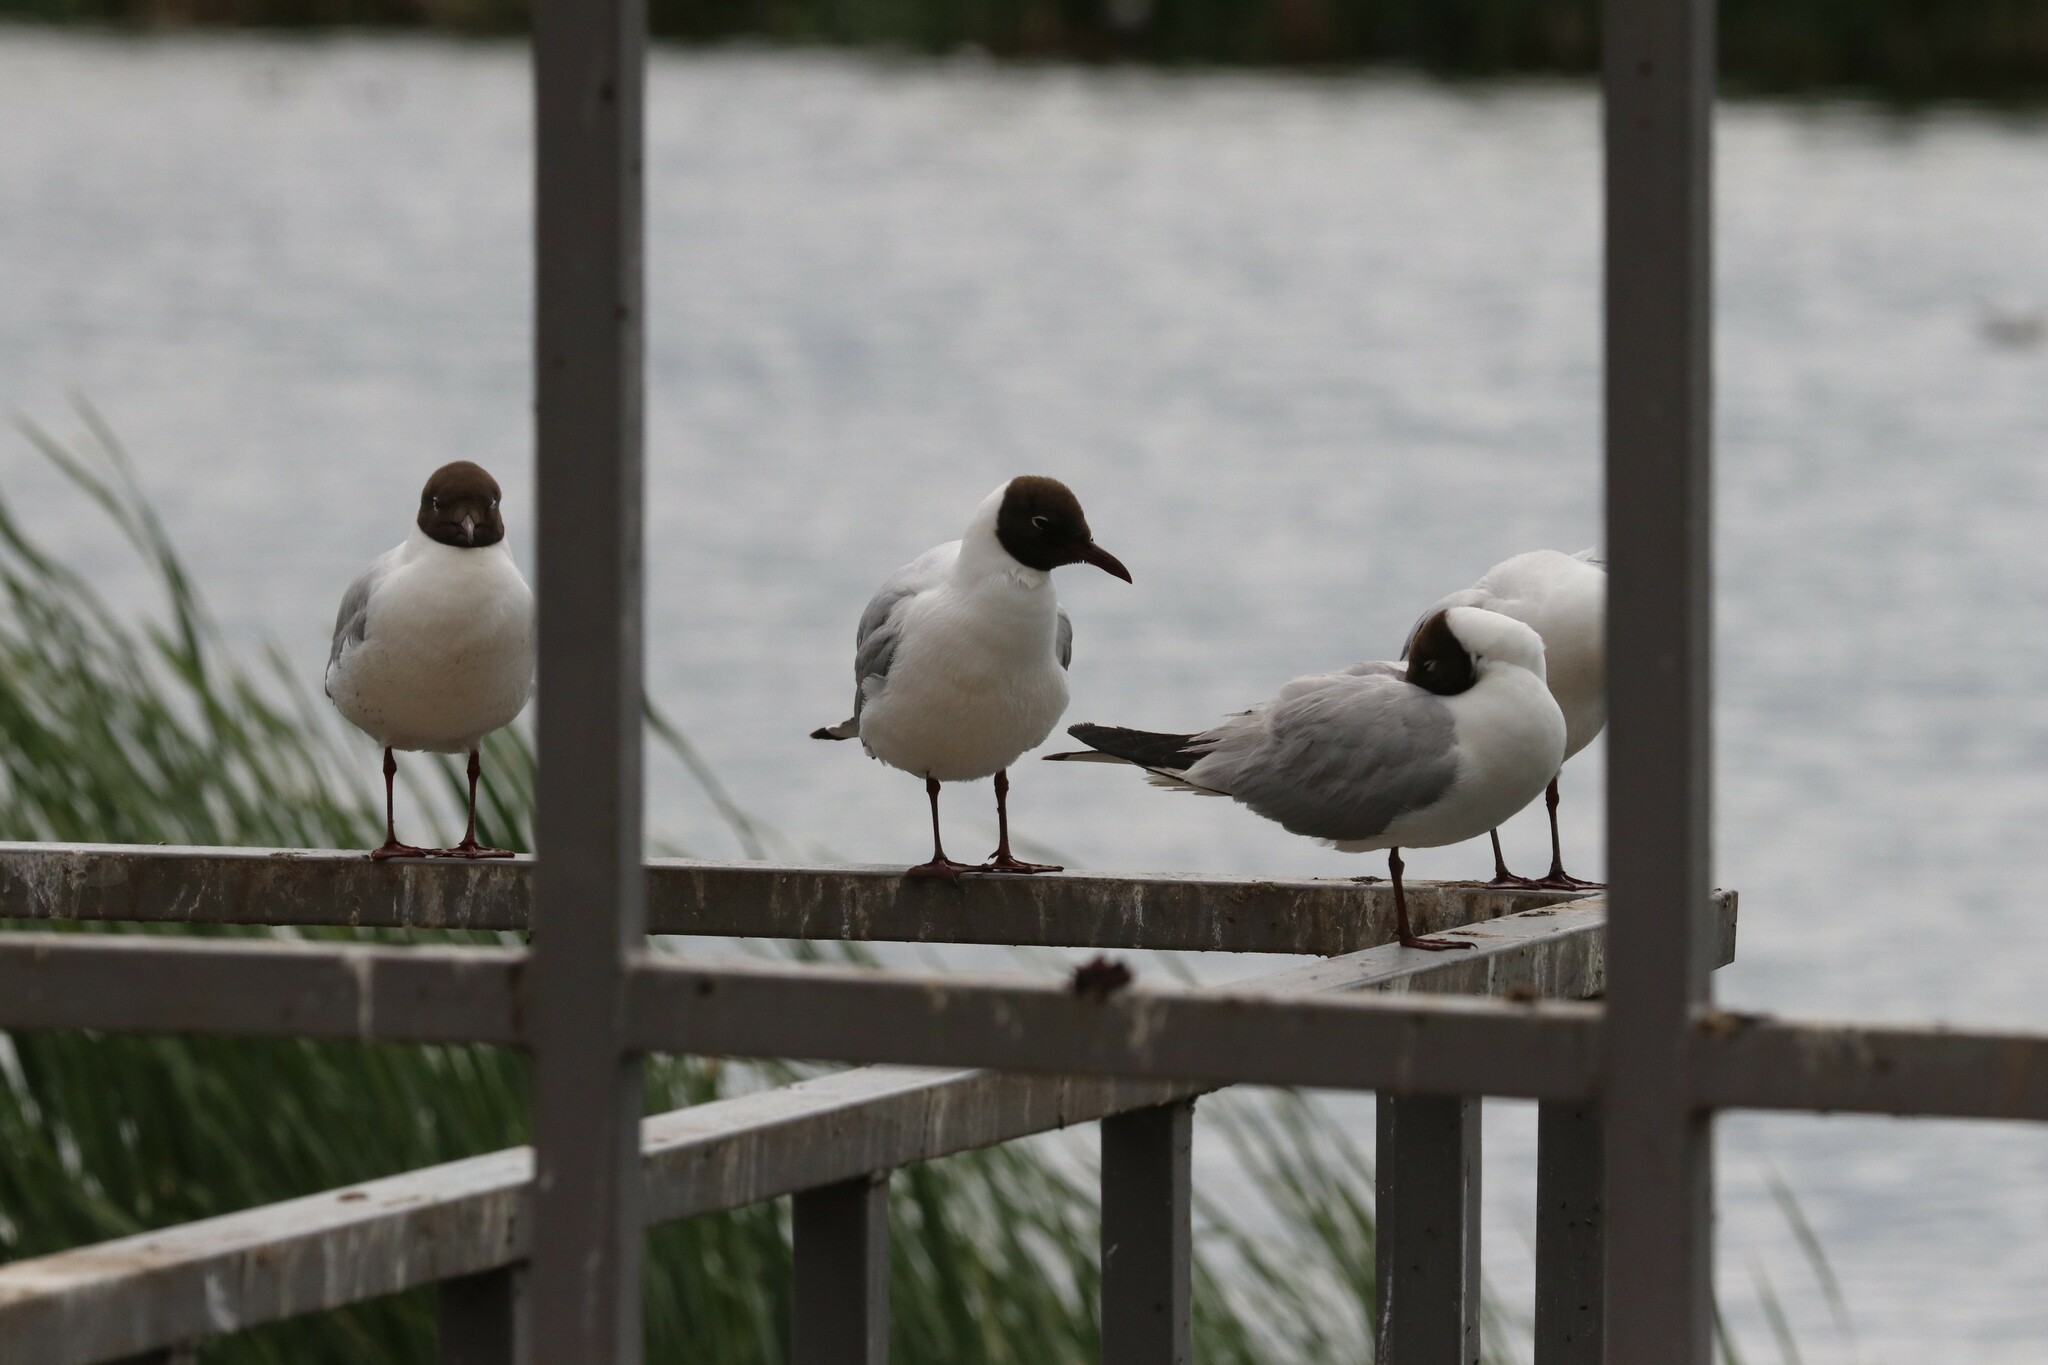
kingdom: Animalia
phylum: Chordata
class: Aves
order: Charadriiformes
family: Laridae
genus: Chroicocephalus
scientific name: Chroicocephalus ridibundus
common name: Black-headed gull
